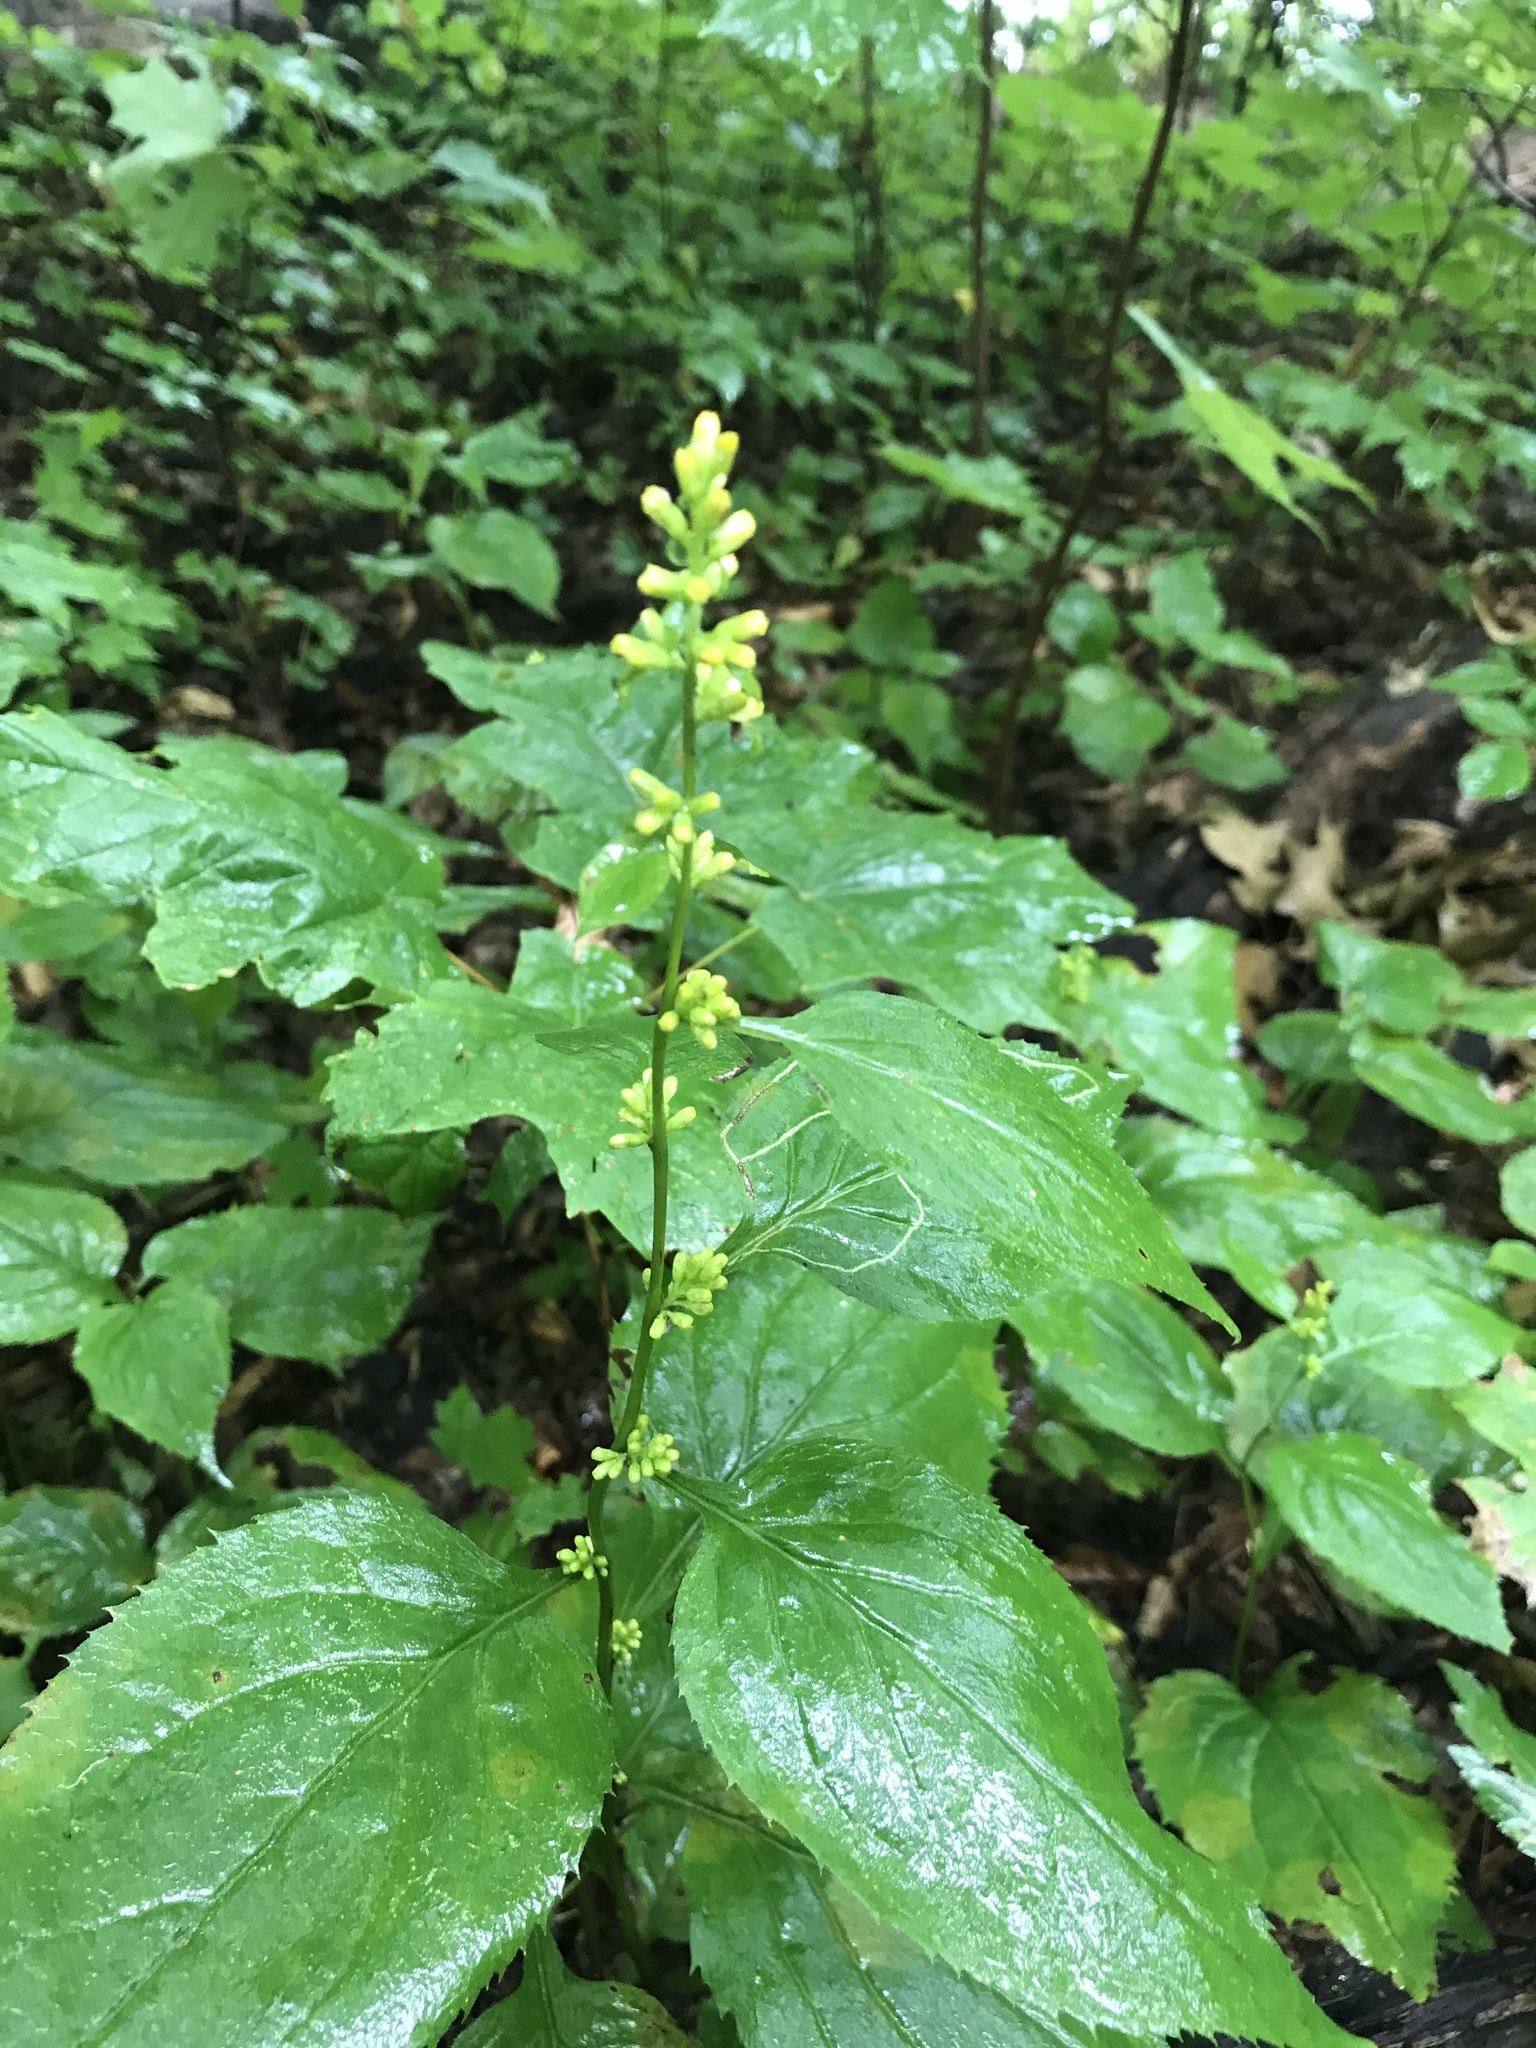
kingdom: Plantae
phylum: Tracheophyta
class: Magnoliopsida
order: Asterales
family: Asteraceae
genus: Solidago
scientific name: Solidago flexicaulis
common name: Zig-zag goldenrod
